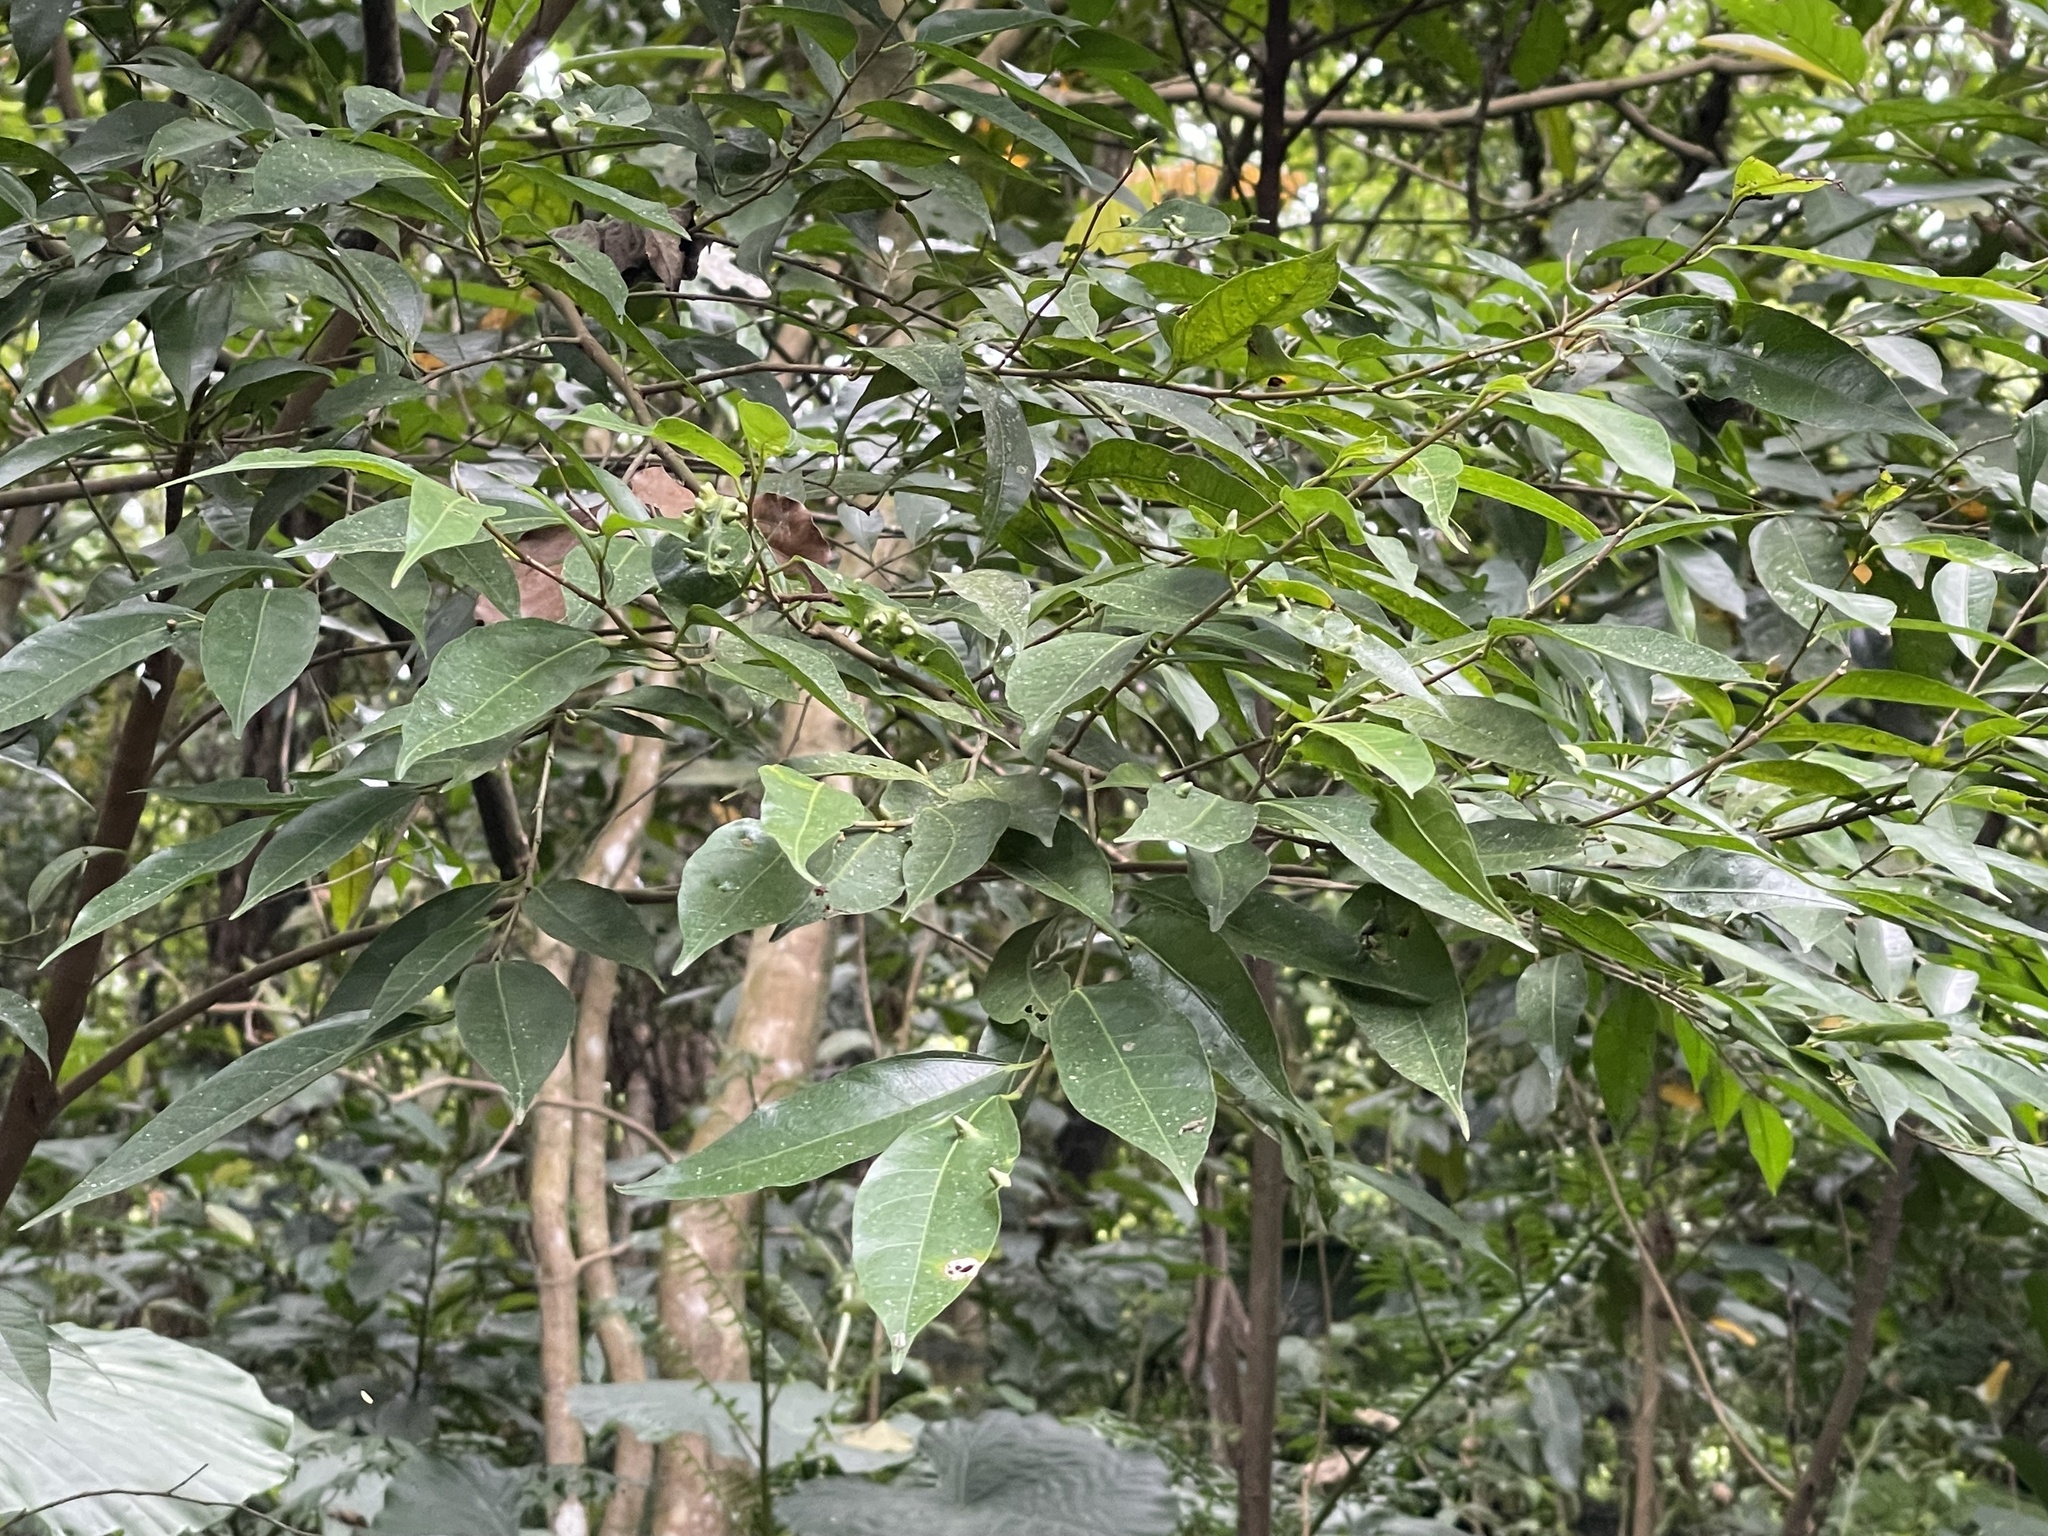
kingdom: Plantae
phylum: Tracheophyta
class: Magnoliopsida
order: Rosales
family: Moraceae
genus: Ficus
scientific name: Ficus ampelos
